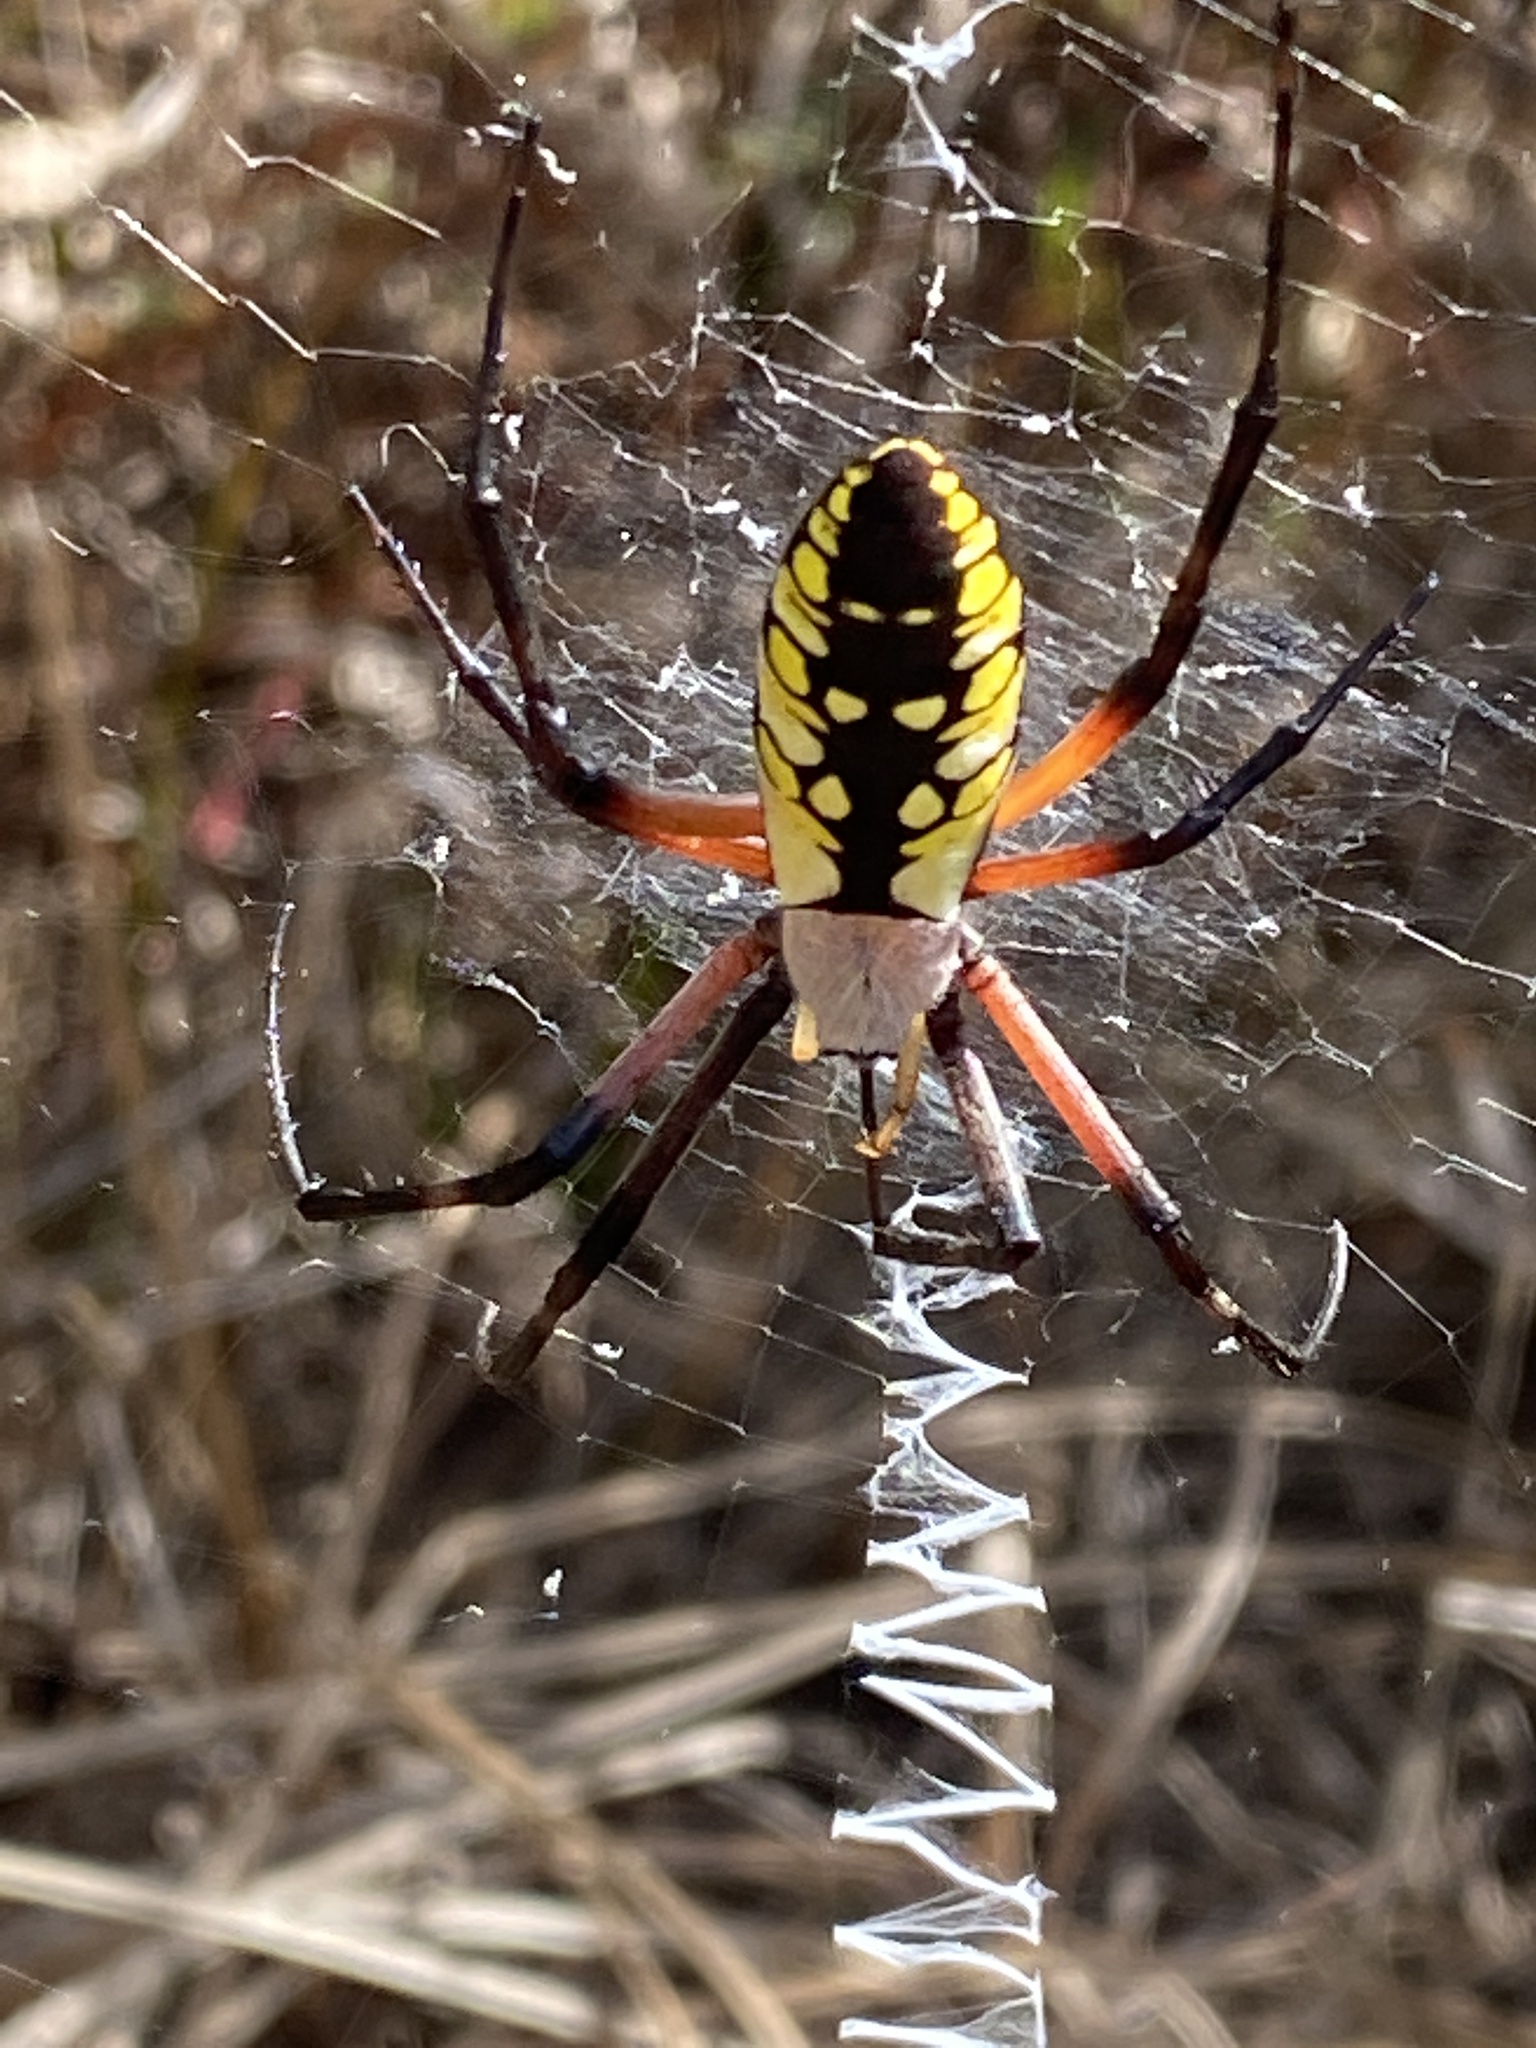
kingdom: Animalia
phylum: Arthropoda
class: Arachnida
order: Araneae
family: Araneidae
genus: Argiope
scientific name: Argiope aurantia
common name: Orb weavers
